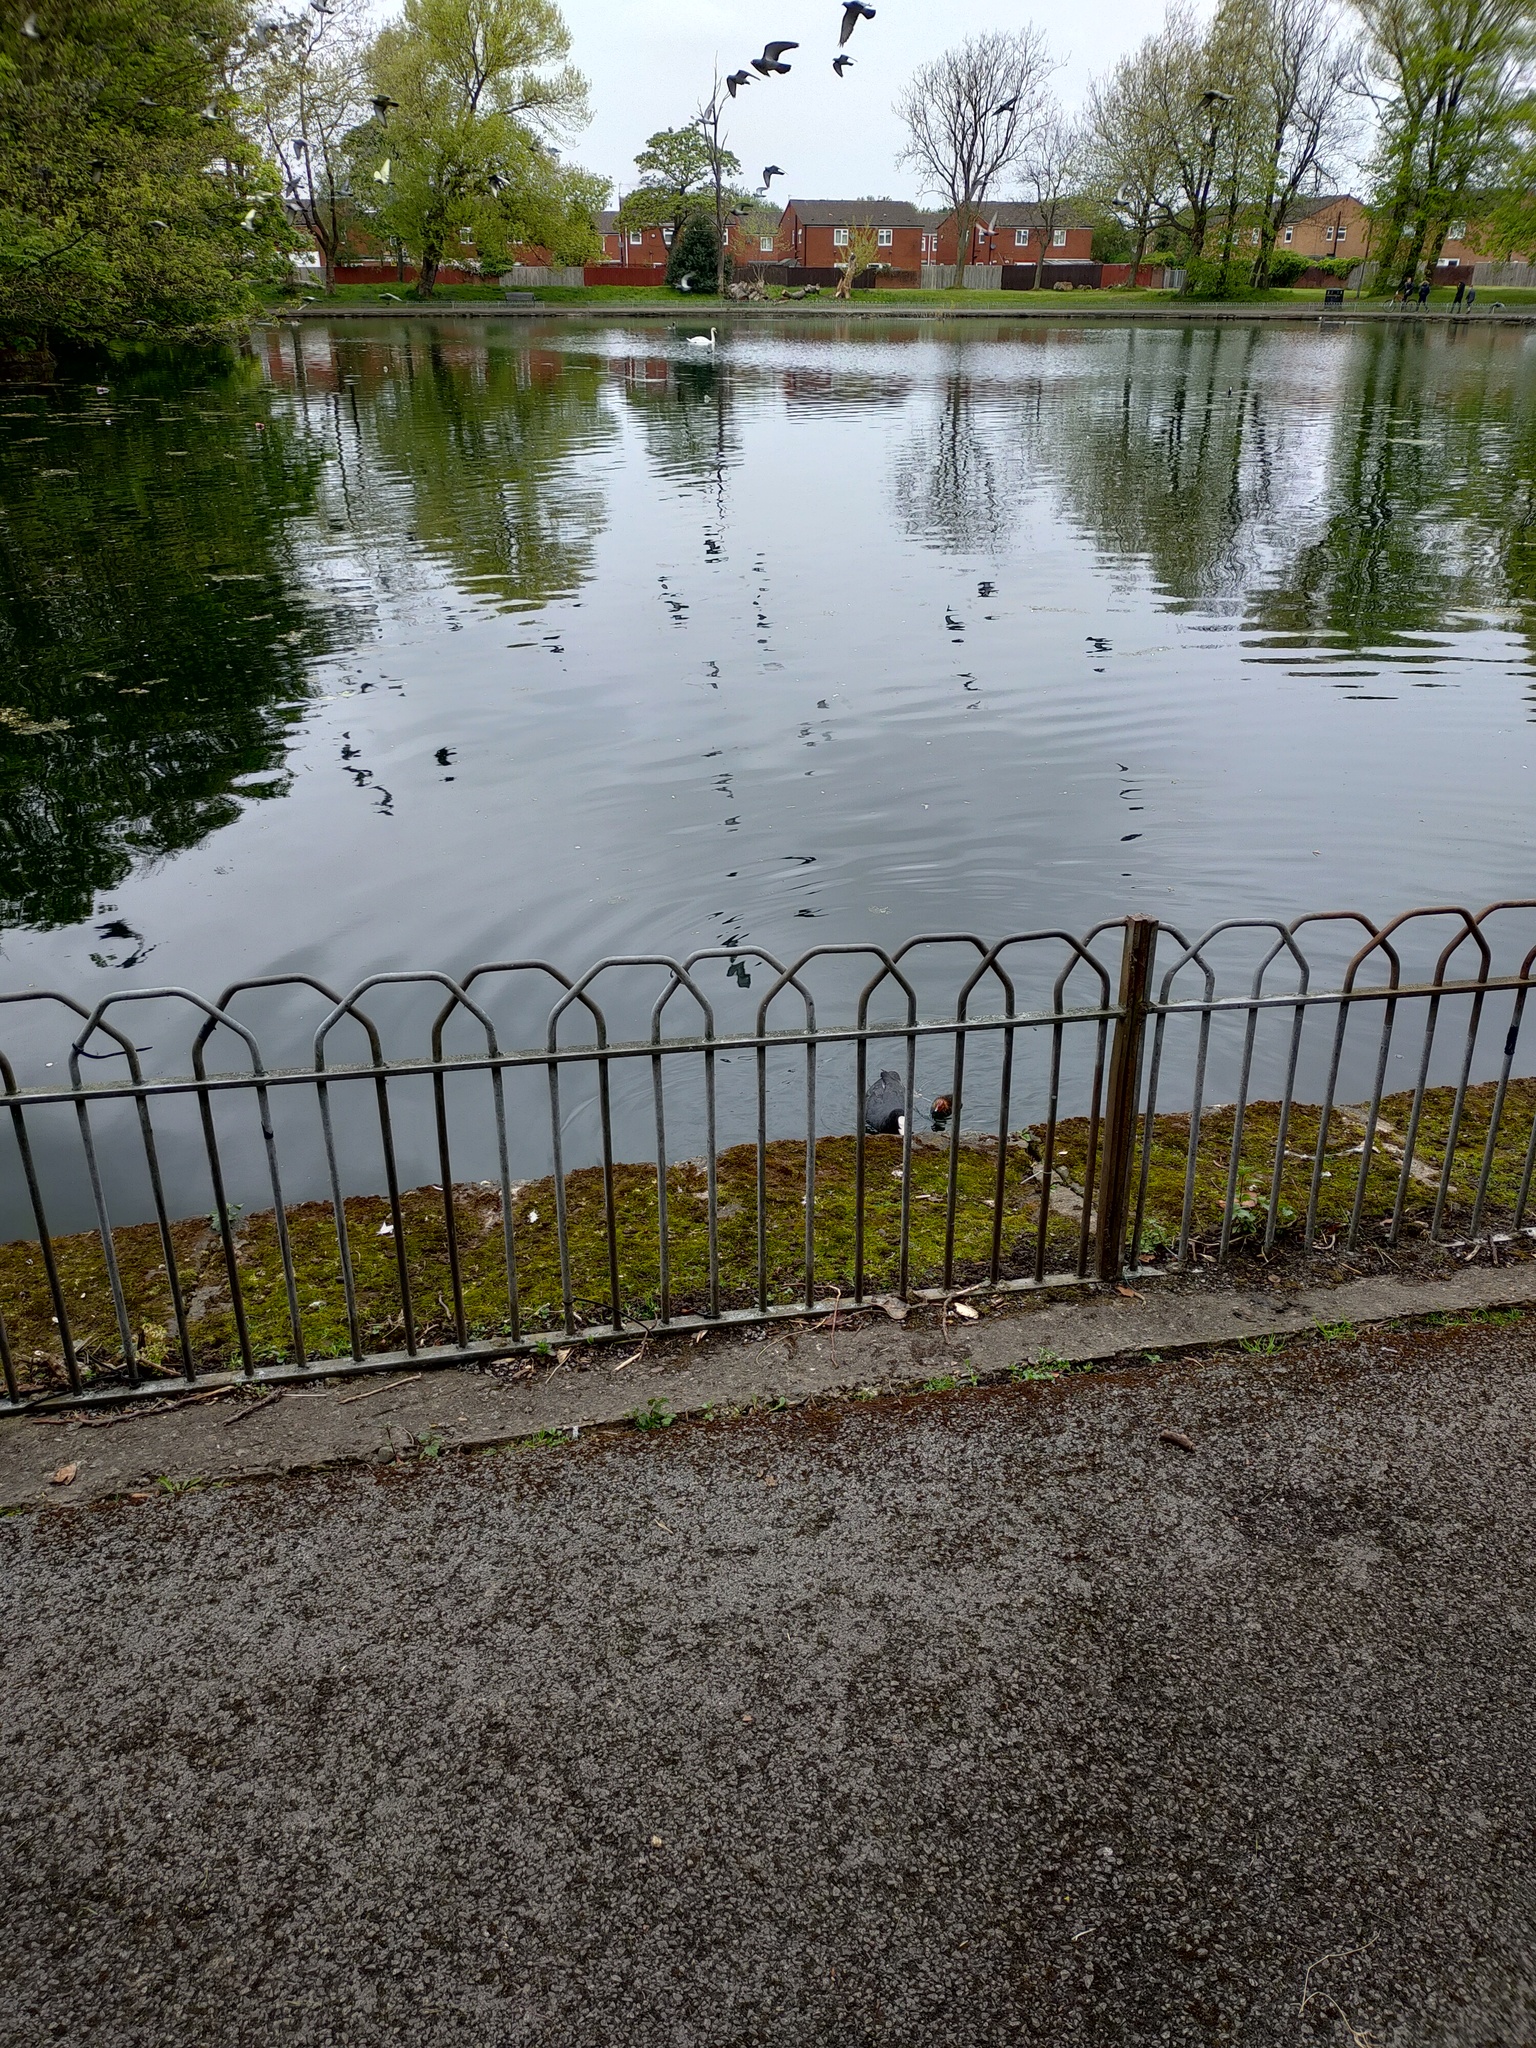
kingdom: Animalia
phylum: Chordata
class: Aves
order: Gruiformes
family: Rallidae
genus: Fulica
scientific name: Fulica atra
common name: Eurasian coot
